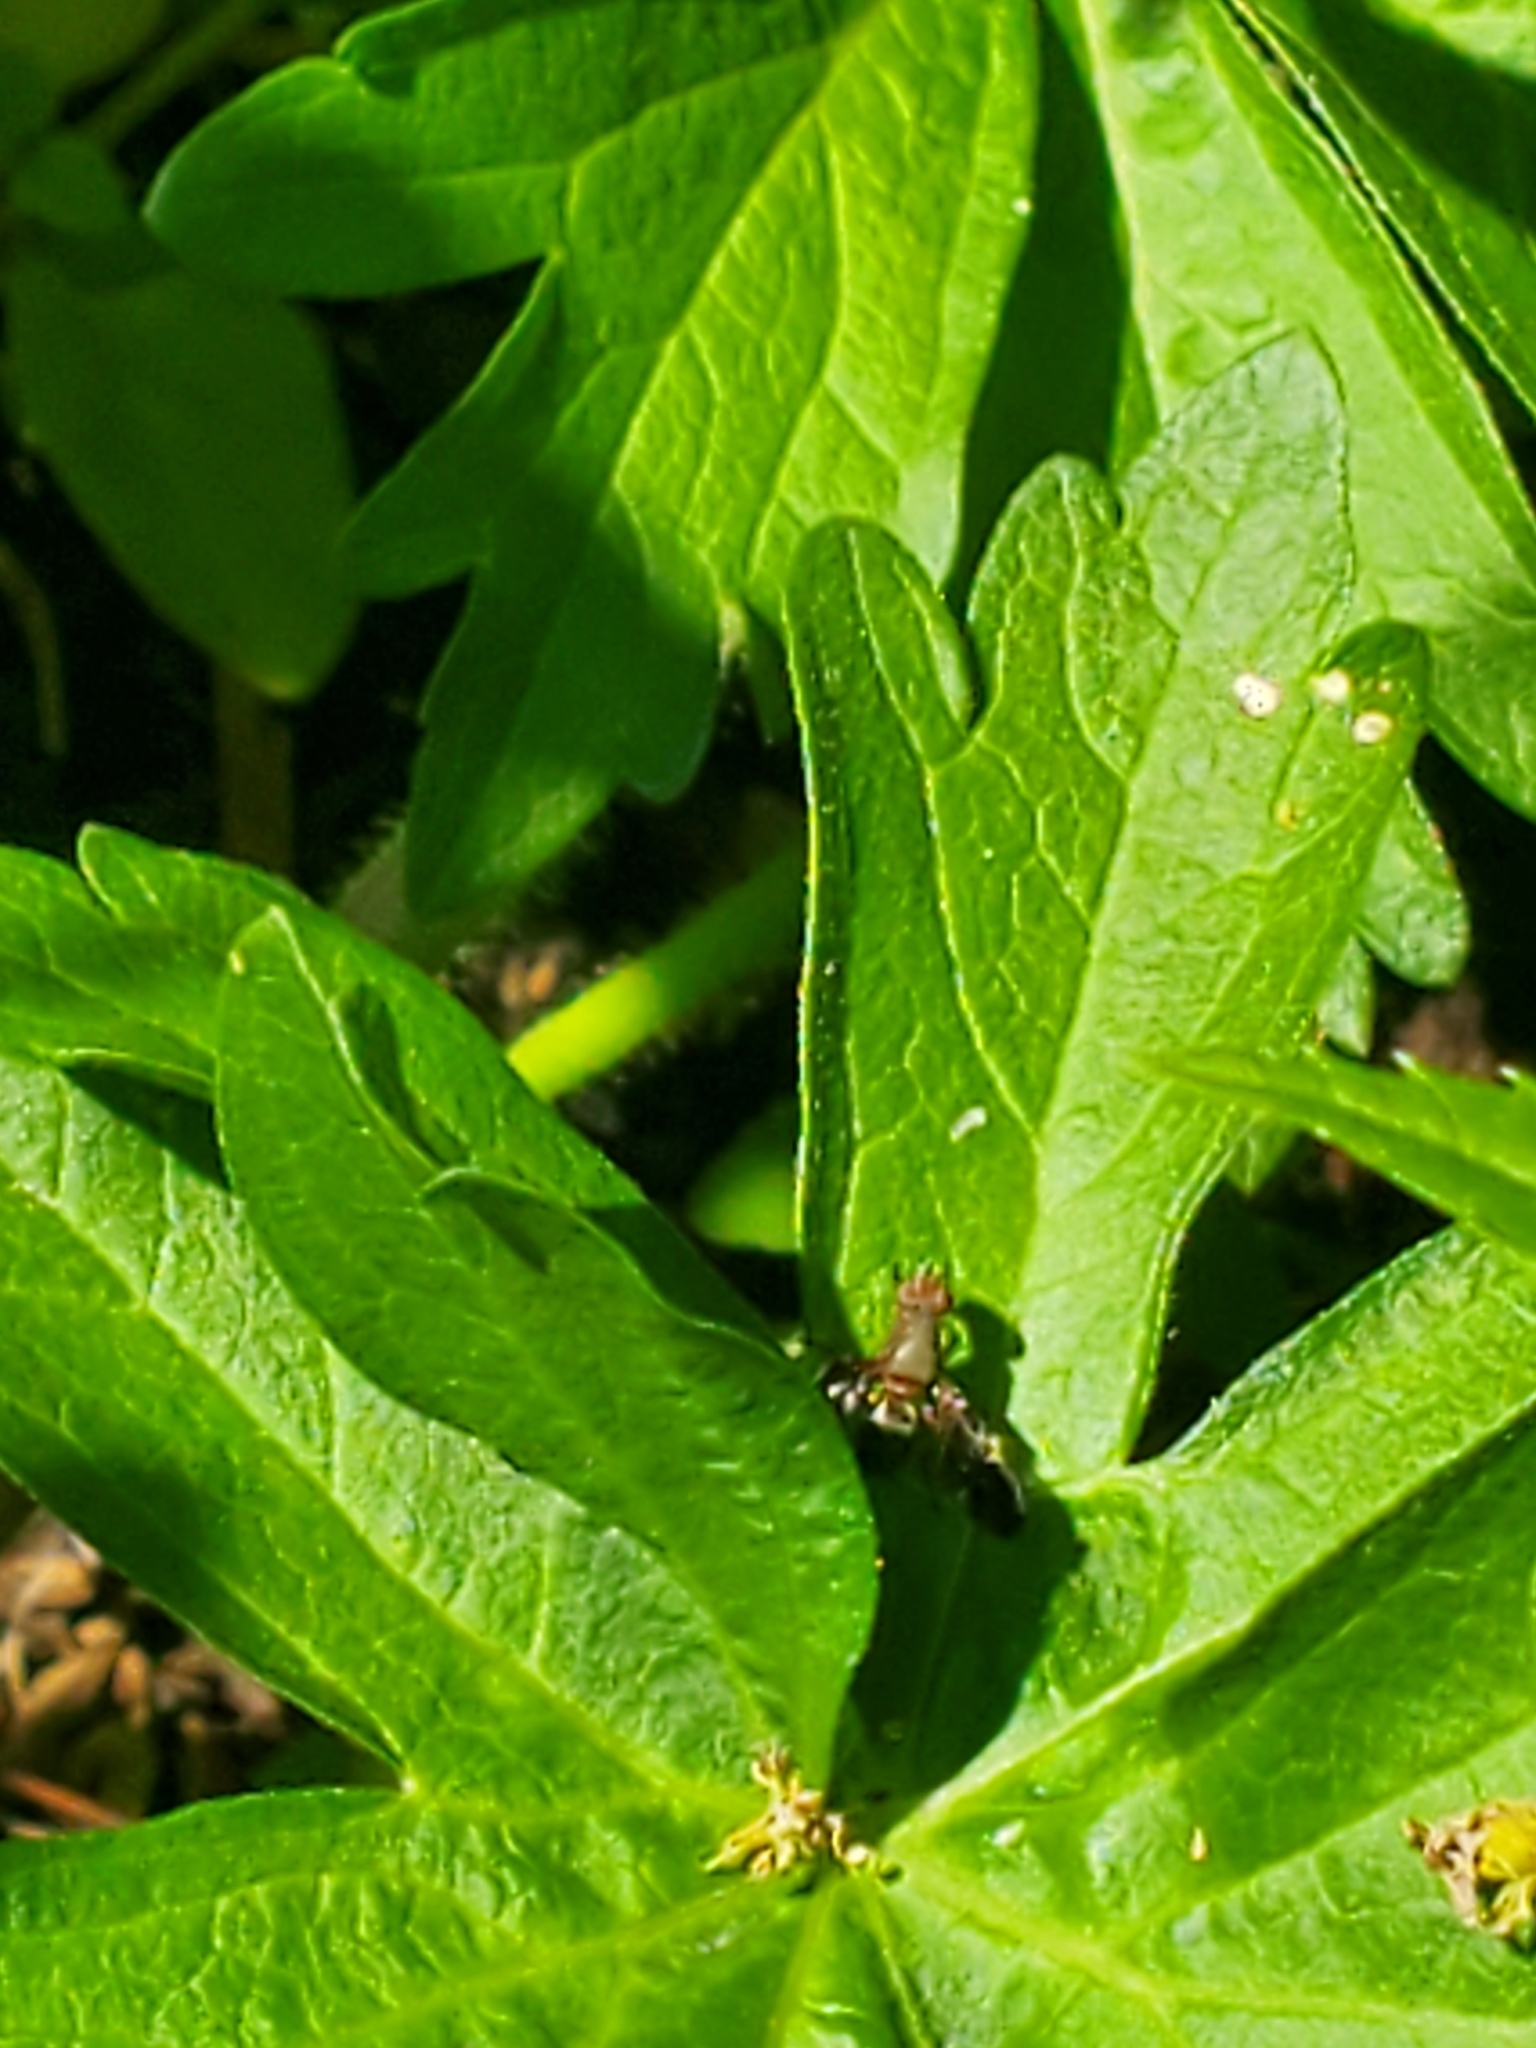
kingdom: Animalia
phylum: Arthropoda
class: Insecta
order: Diptera
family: Ulidiidae
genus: Delphinia
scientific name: Delphinia picta
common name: Common picture-winged fly
